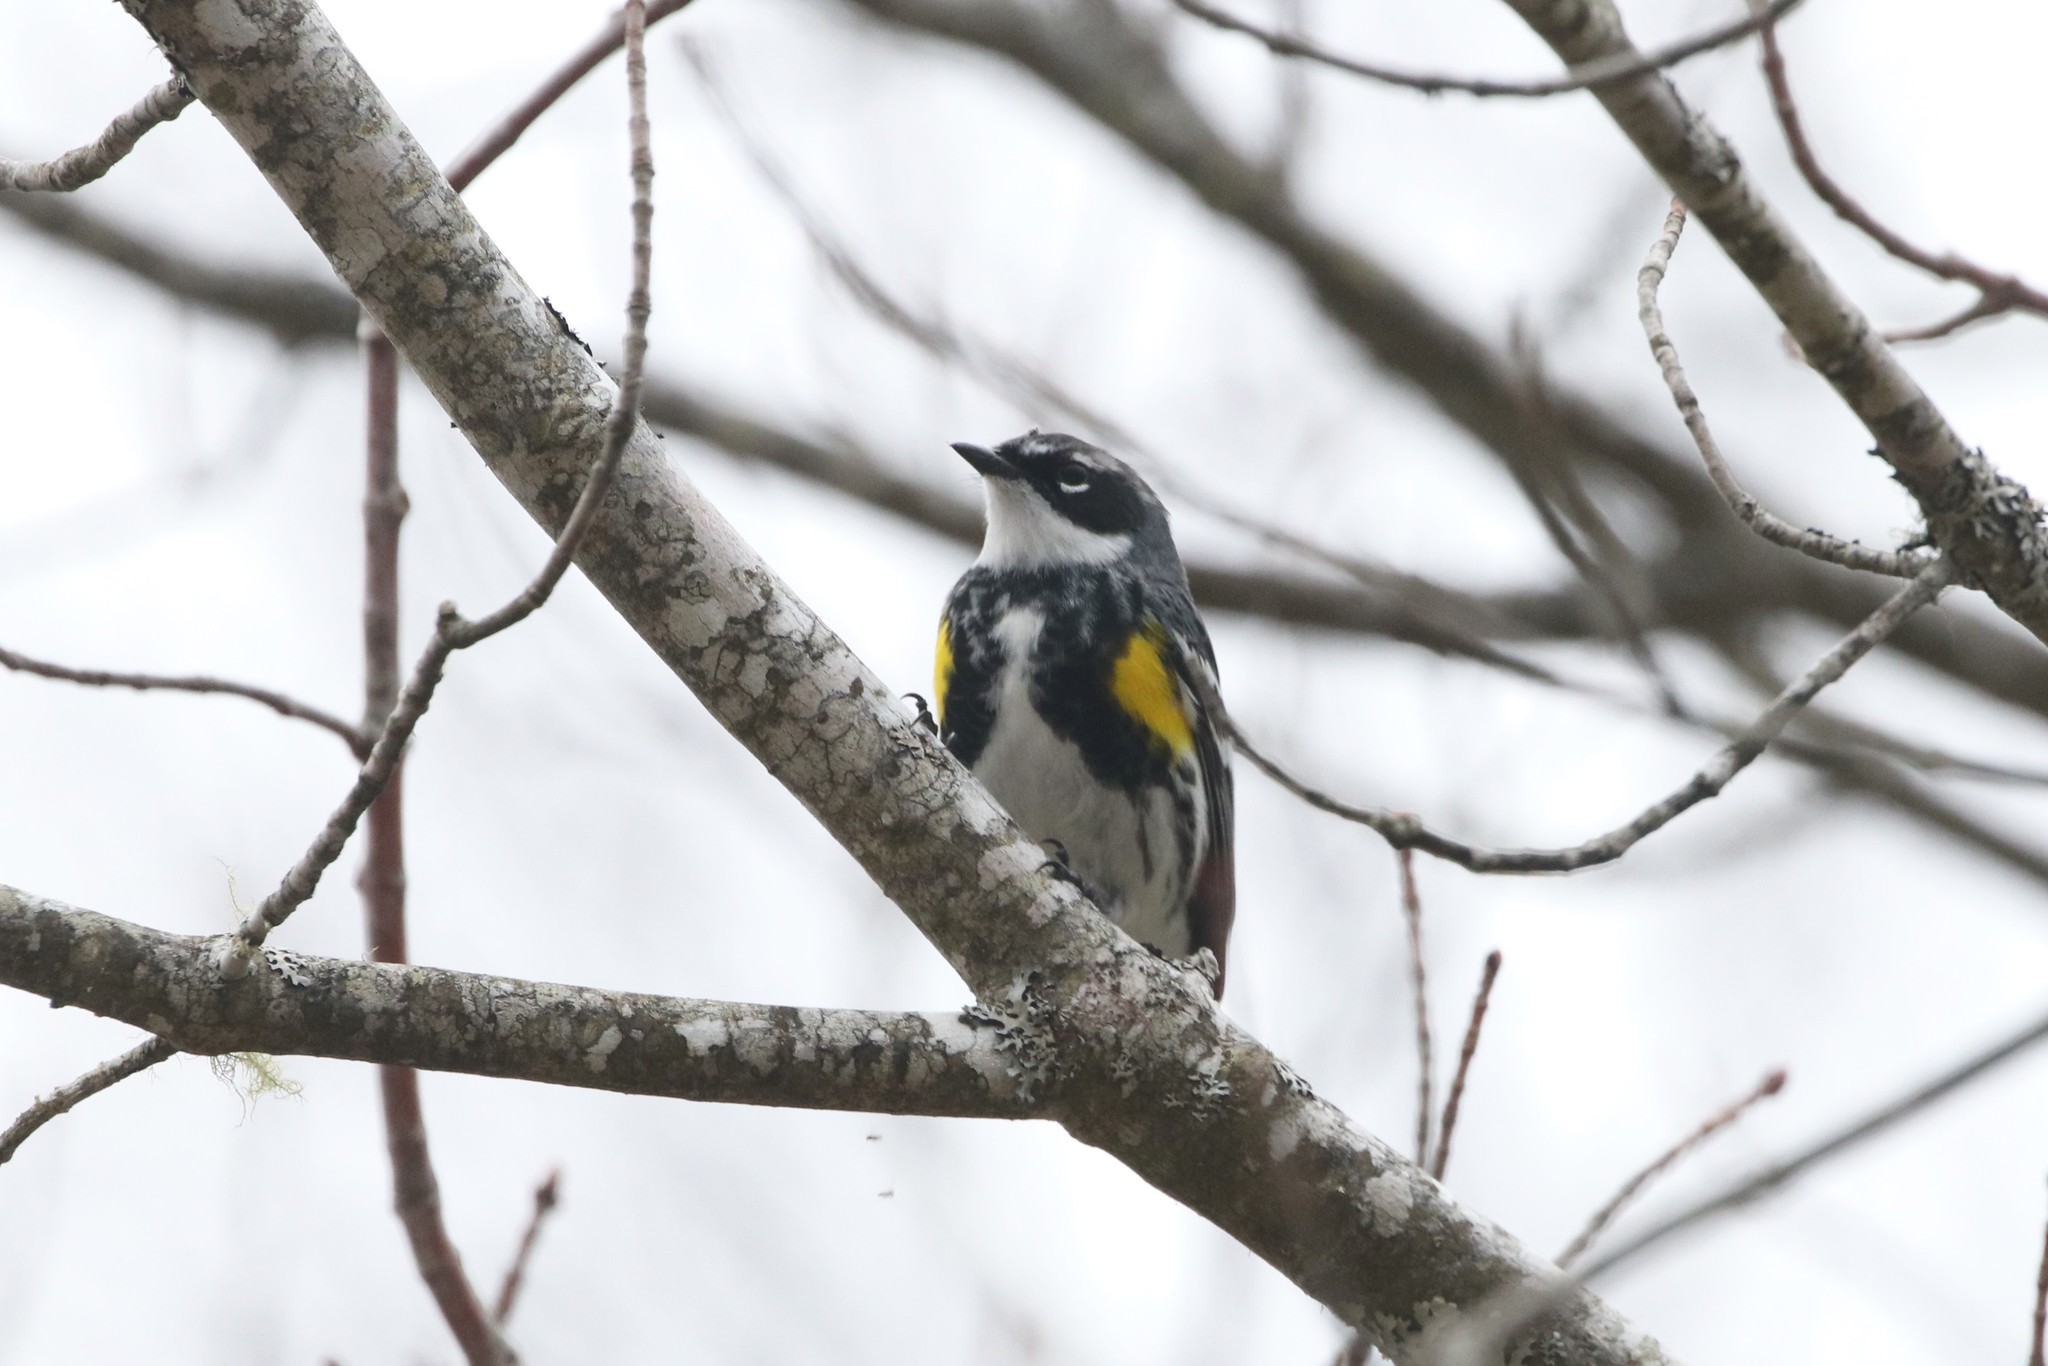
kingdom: Animalia
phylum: Chordata
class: Aves
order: Passeriformes
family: Parulidae
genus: Setophaga
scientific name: Setophaga coronata
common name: Myrtle warbler
